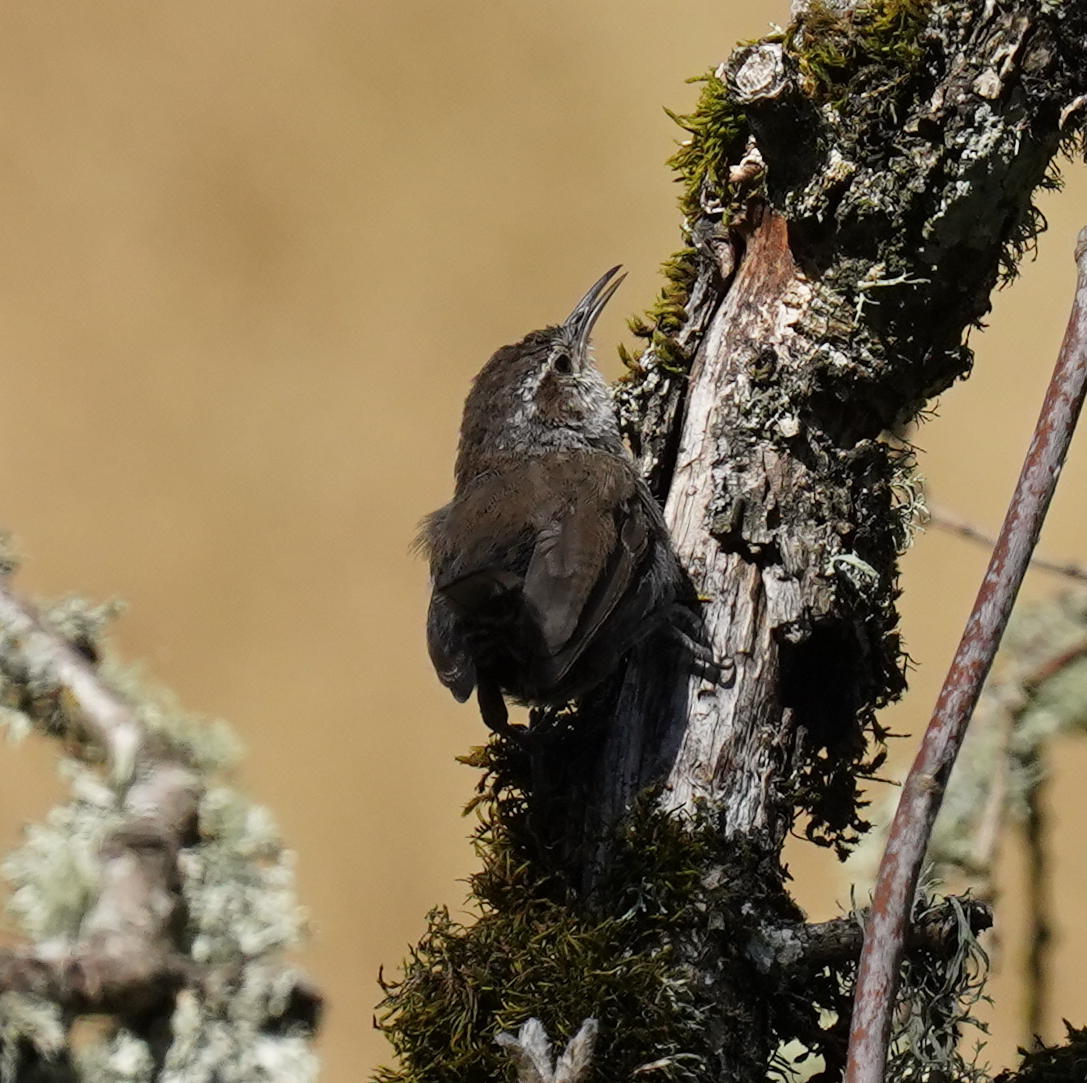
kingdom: Animalia
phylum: Chordata
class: Aves
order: Passeriformes
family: Troglodytidae
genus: Thryomanes
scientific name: Thryomanes bewickii
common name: Bewick's wren
